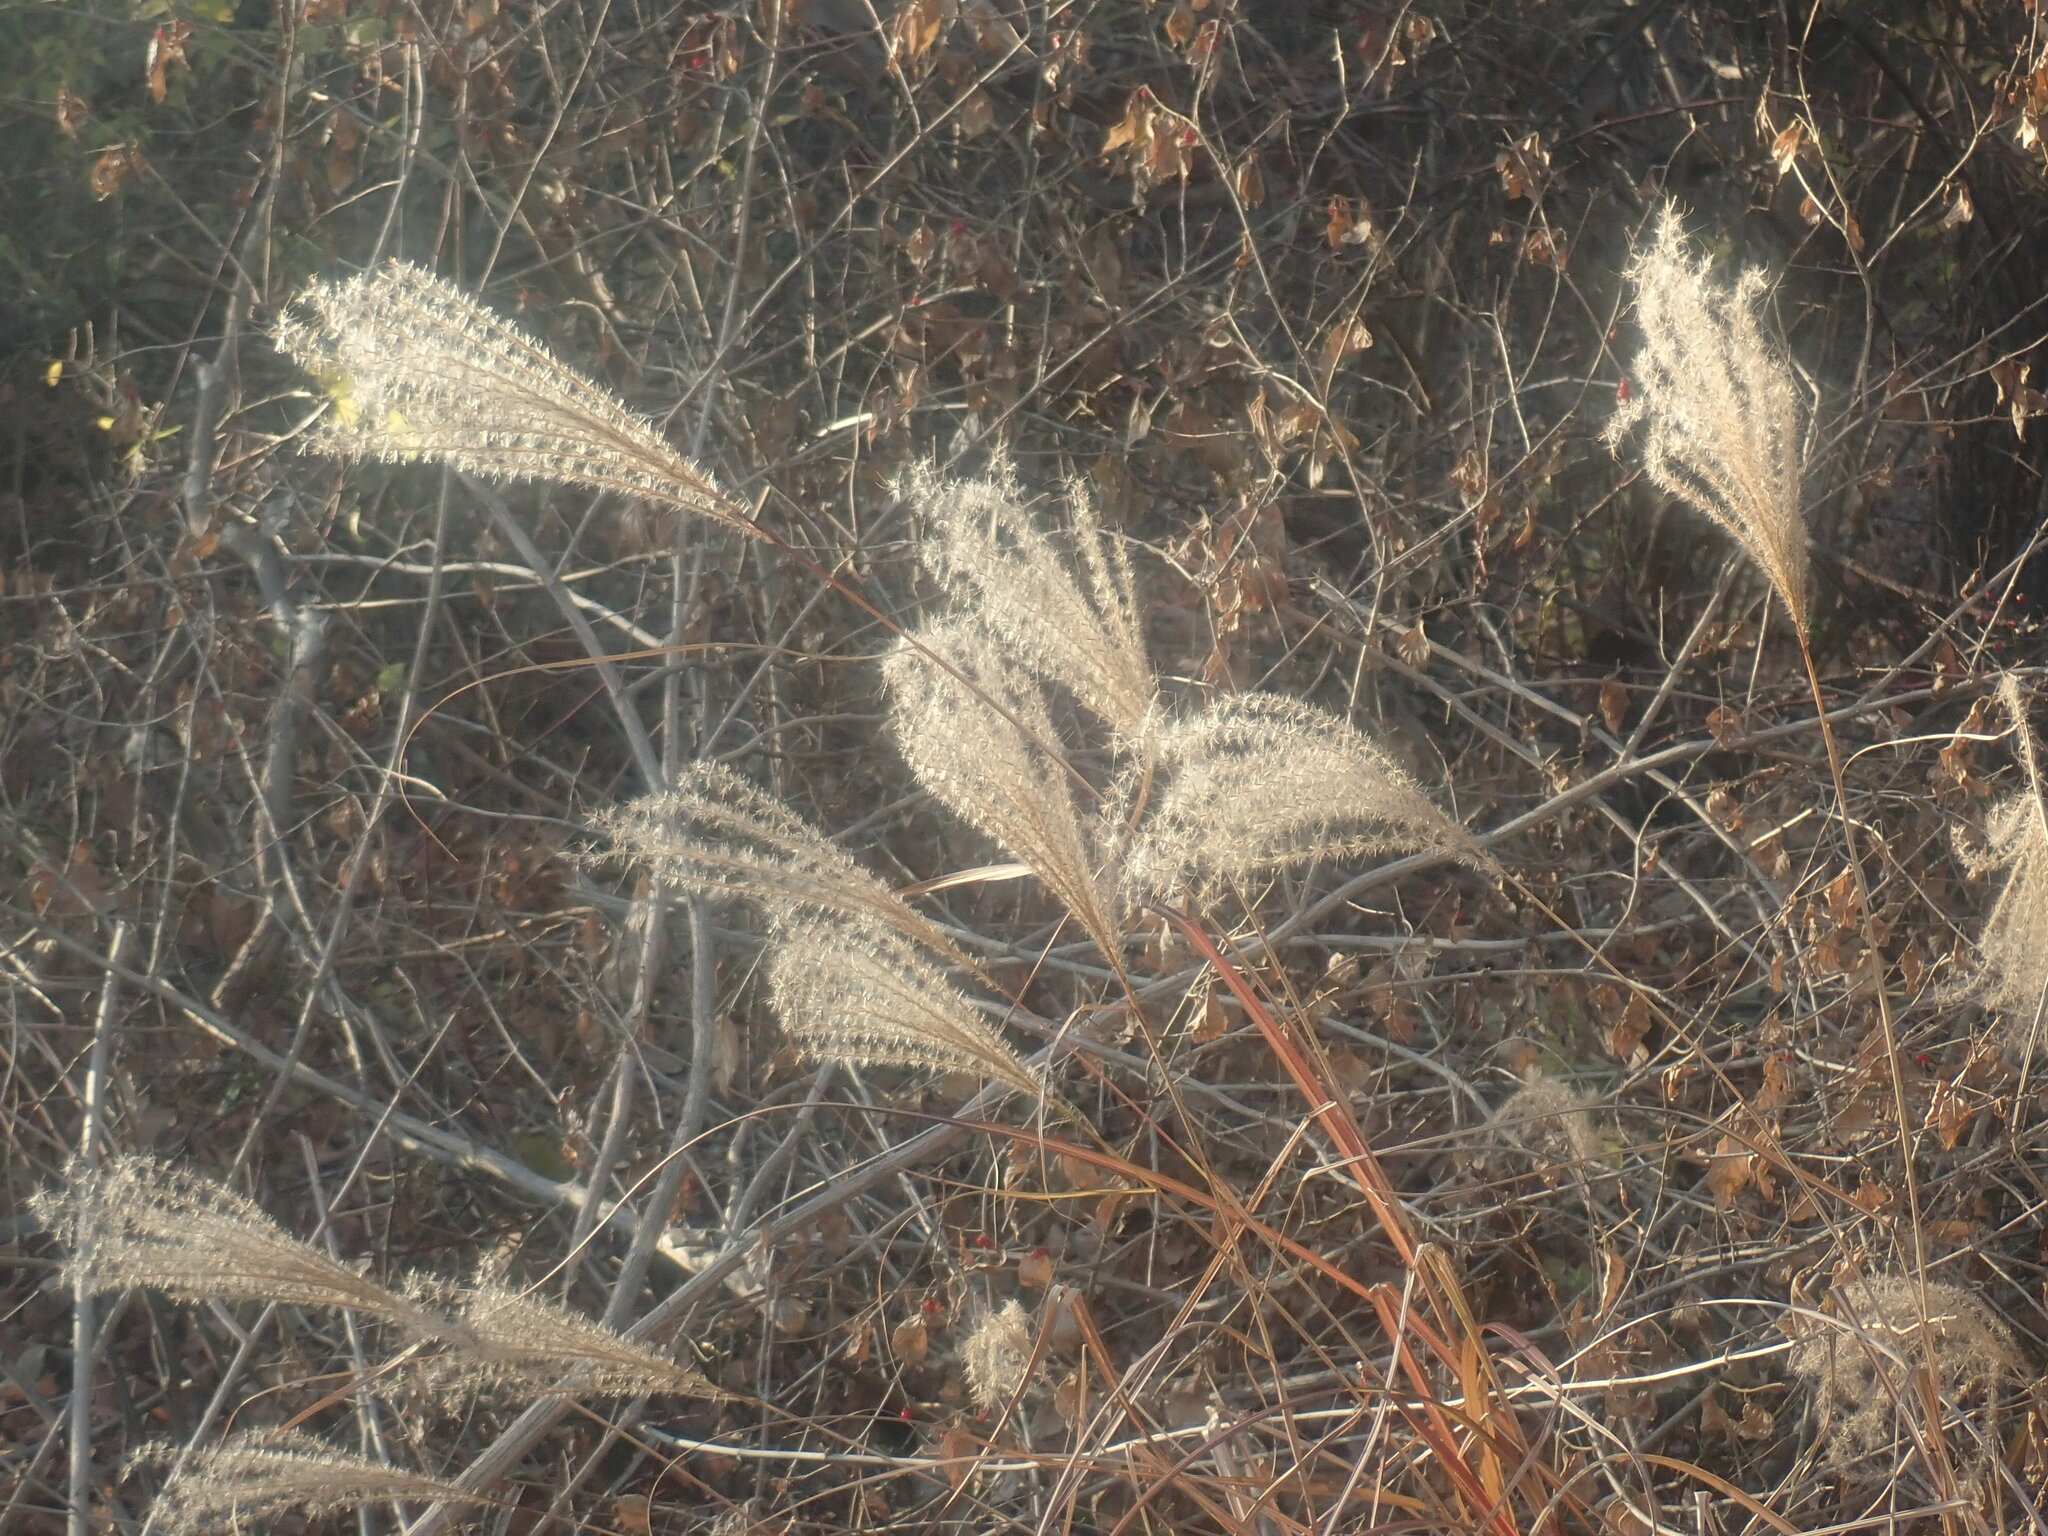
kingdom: Plantae
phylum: Tracheophyta
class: Liliopsida
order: Poales
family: Poaceae
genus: Miscanthus
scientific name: Miscanthus sinensis
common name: Chinese silvergrass
